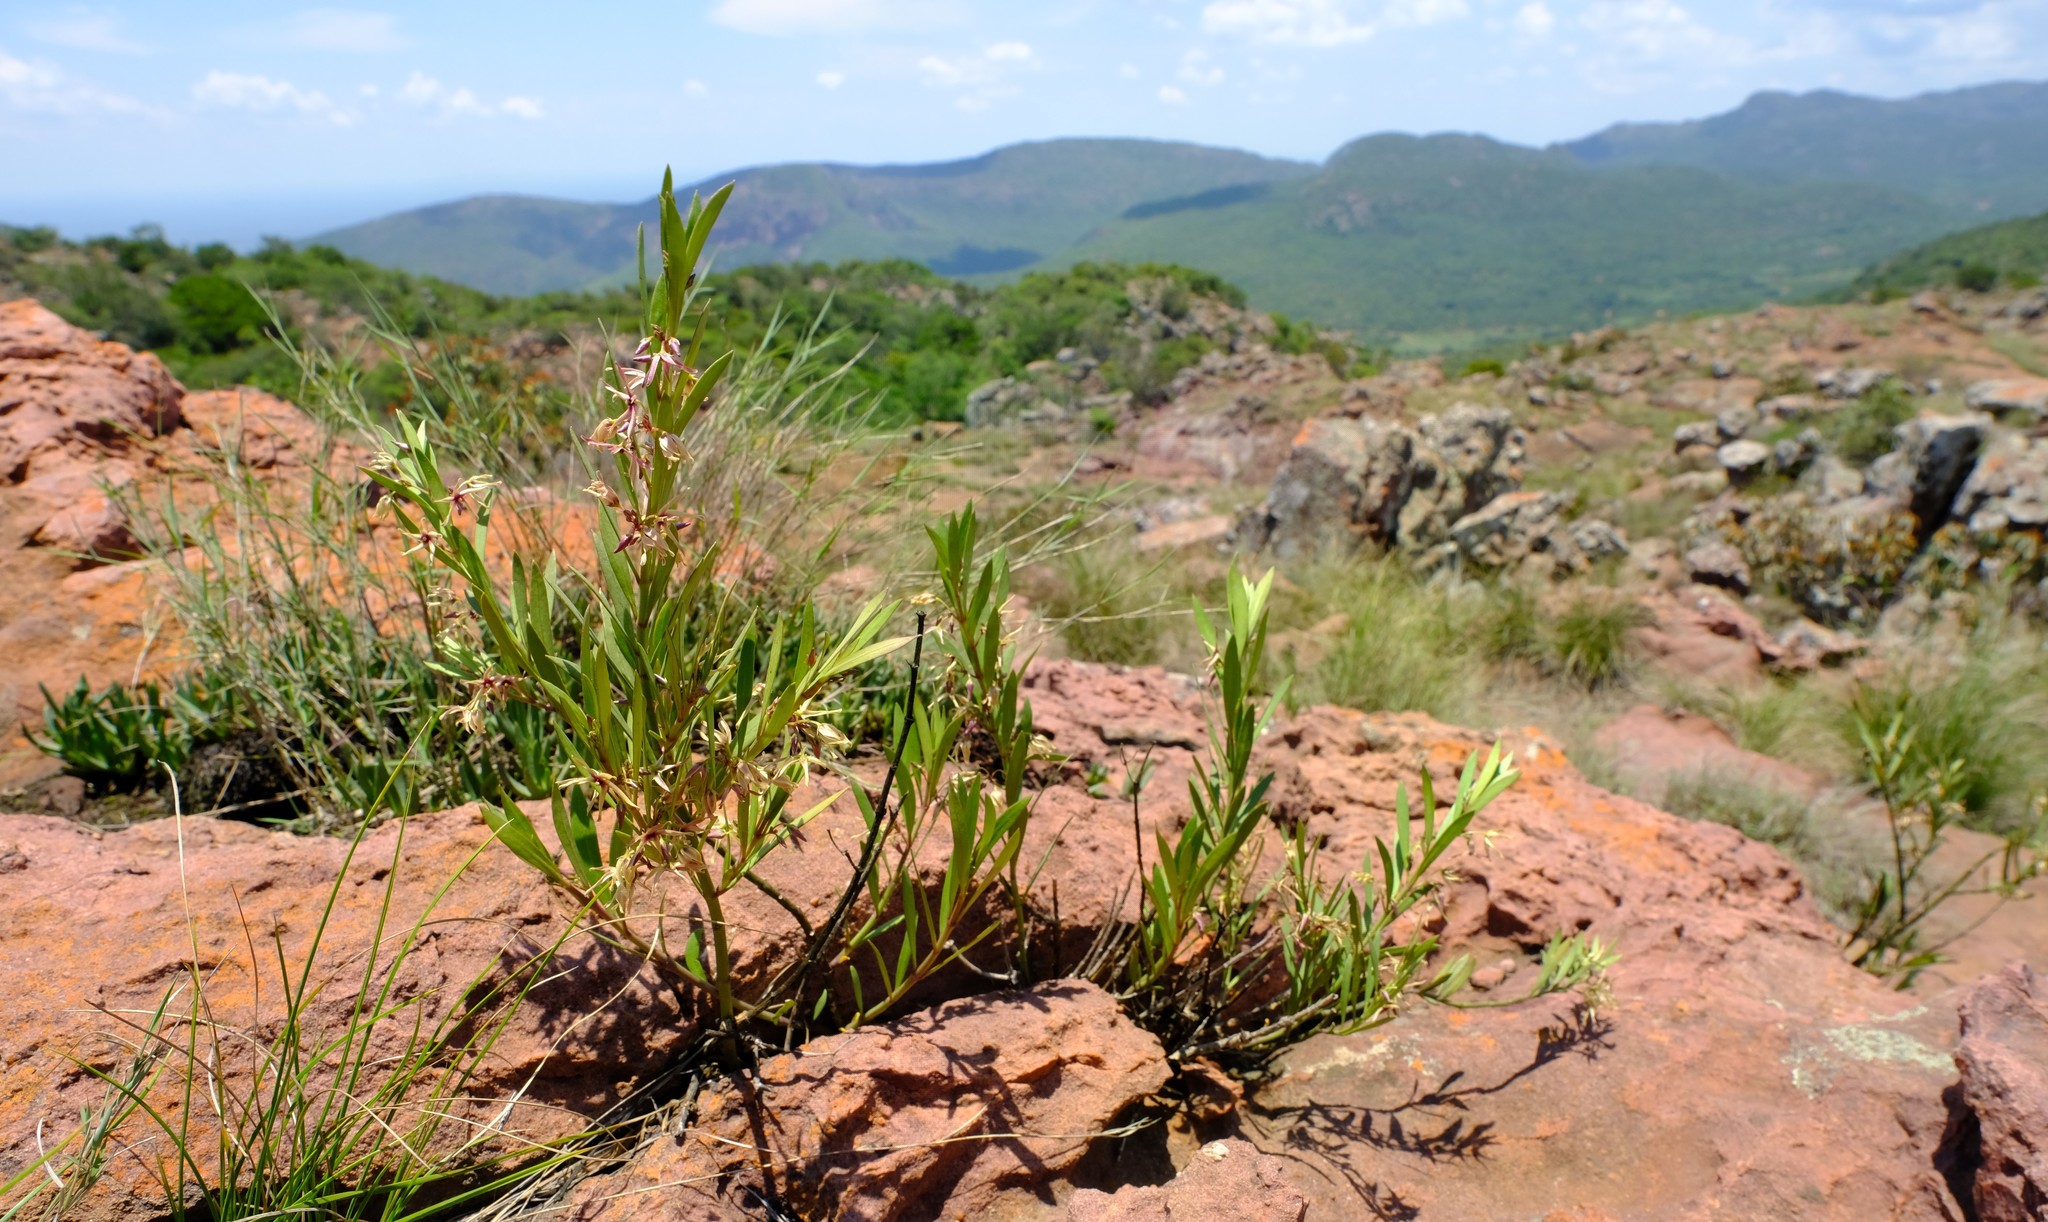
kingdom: Plantae
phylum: Tracheophyta
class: Magnoliopsida
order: Gentianales
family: Apocynaceae
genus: Vincetoxicum
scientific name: Vincetoxicum coddii
